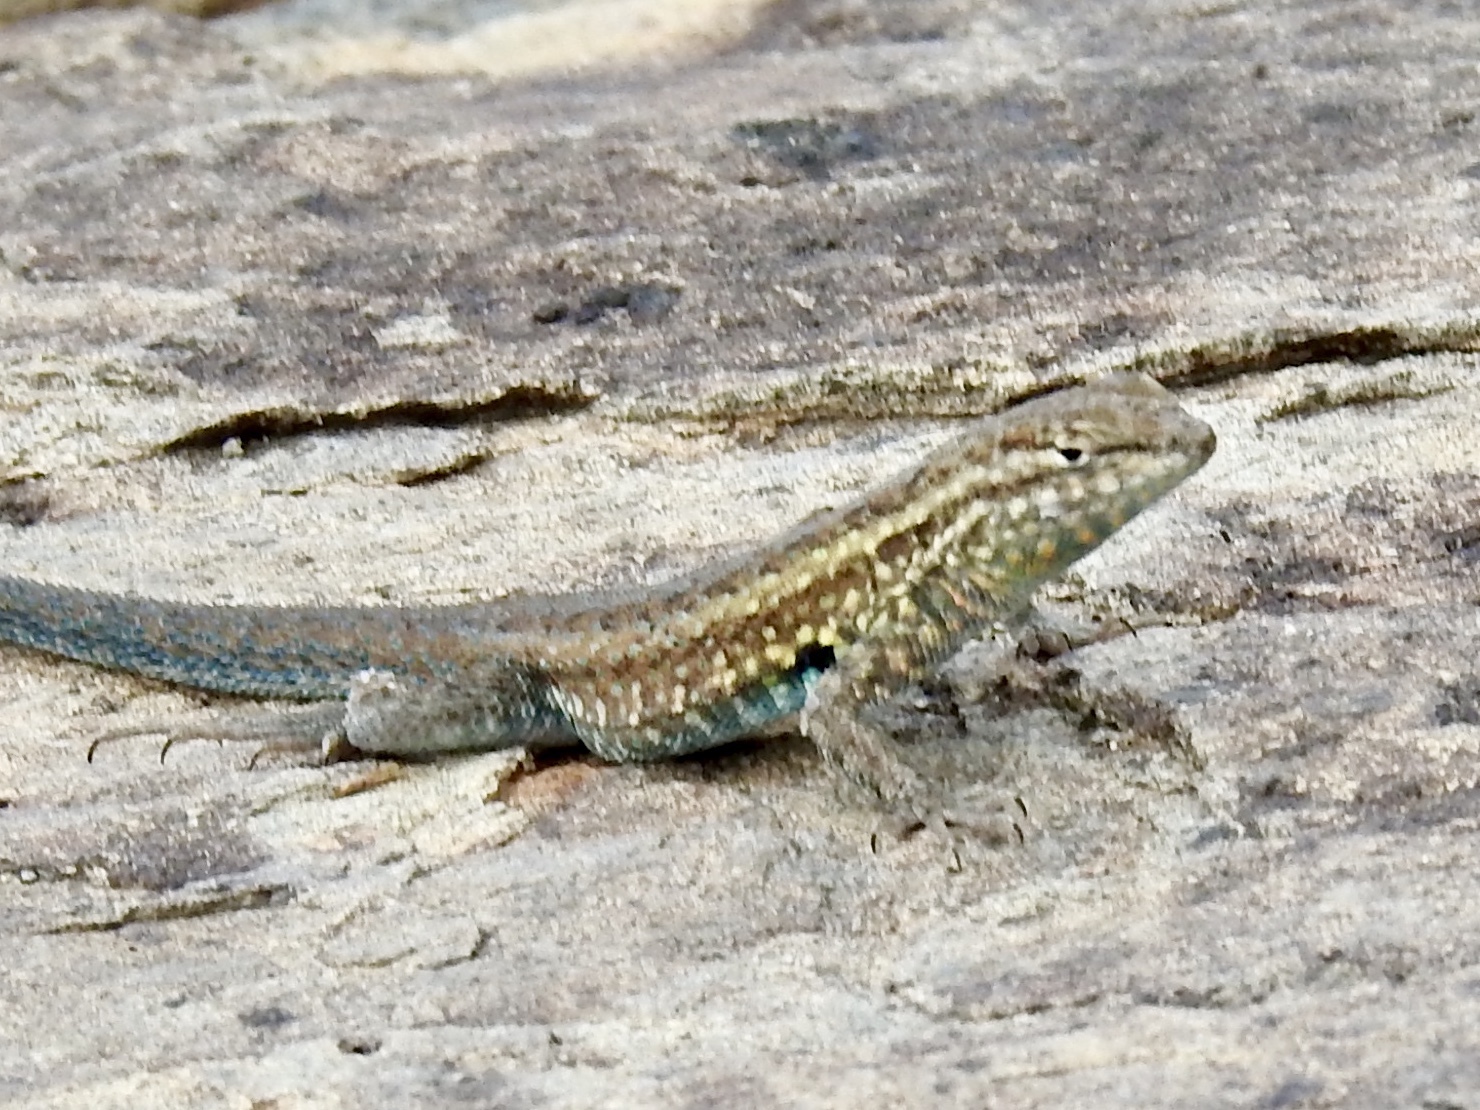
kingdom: Animalia
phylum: Chordata
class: Squamata
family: Phrynosomatidae
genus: Uta
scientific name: Uta stansburiana
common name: Side-blotched lizard
